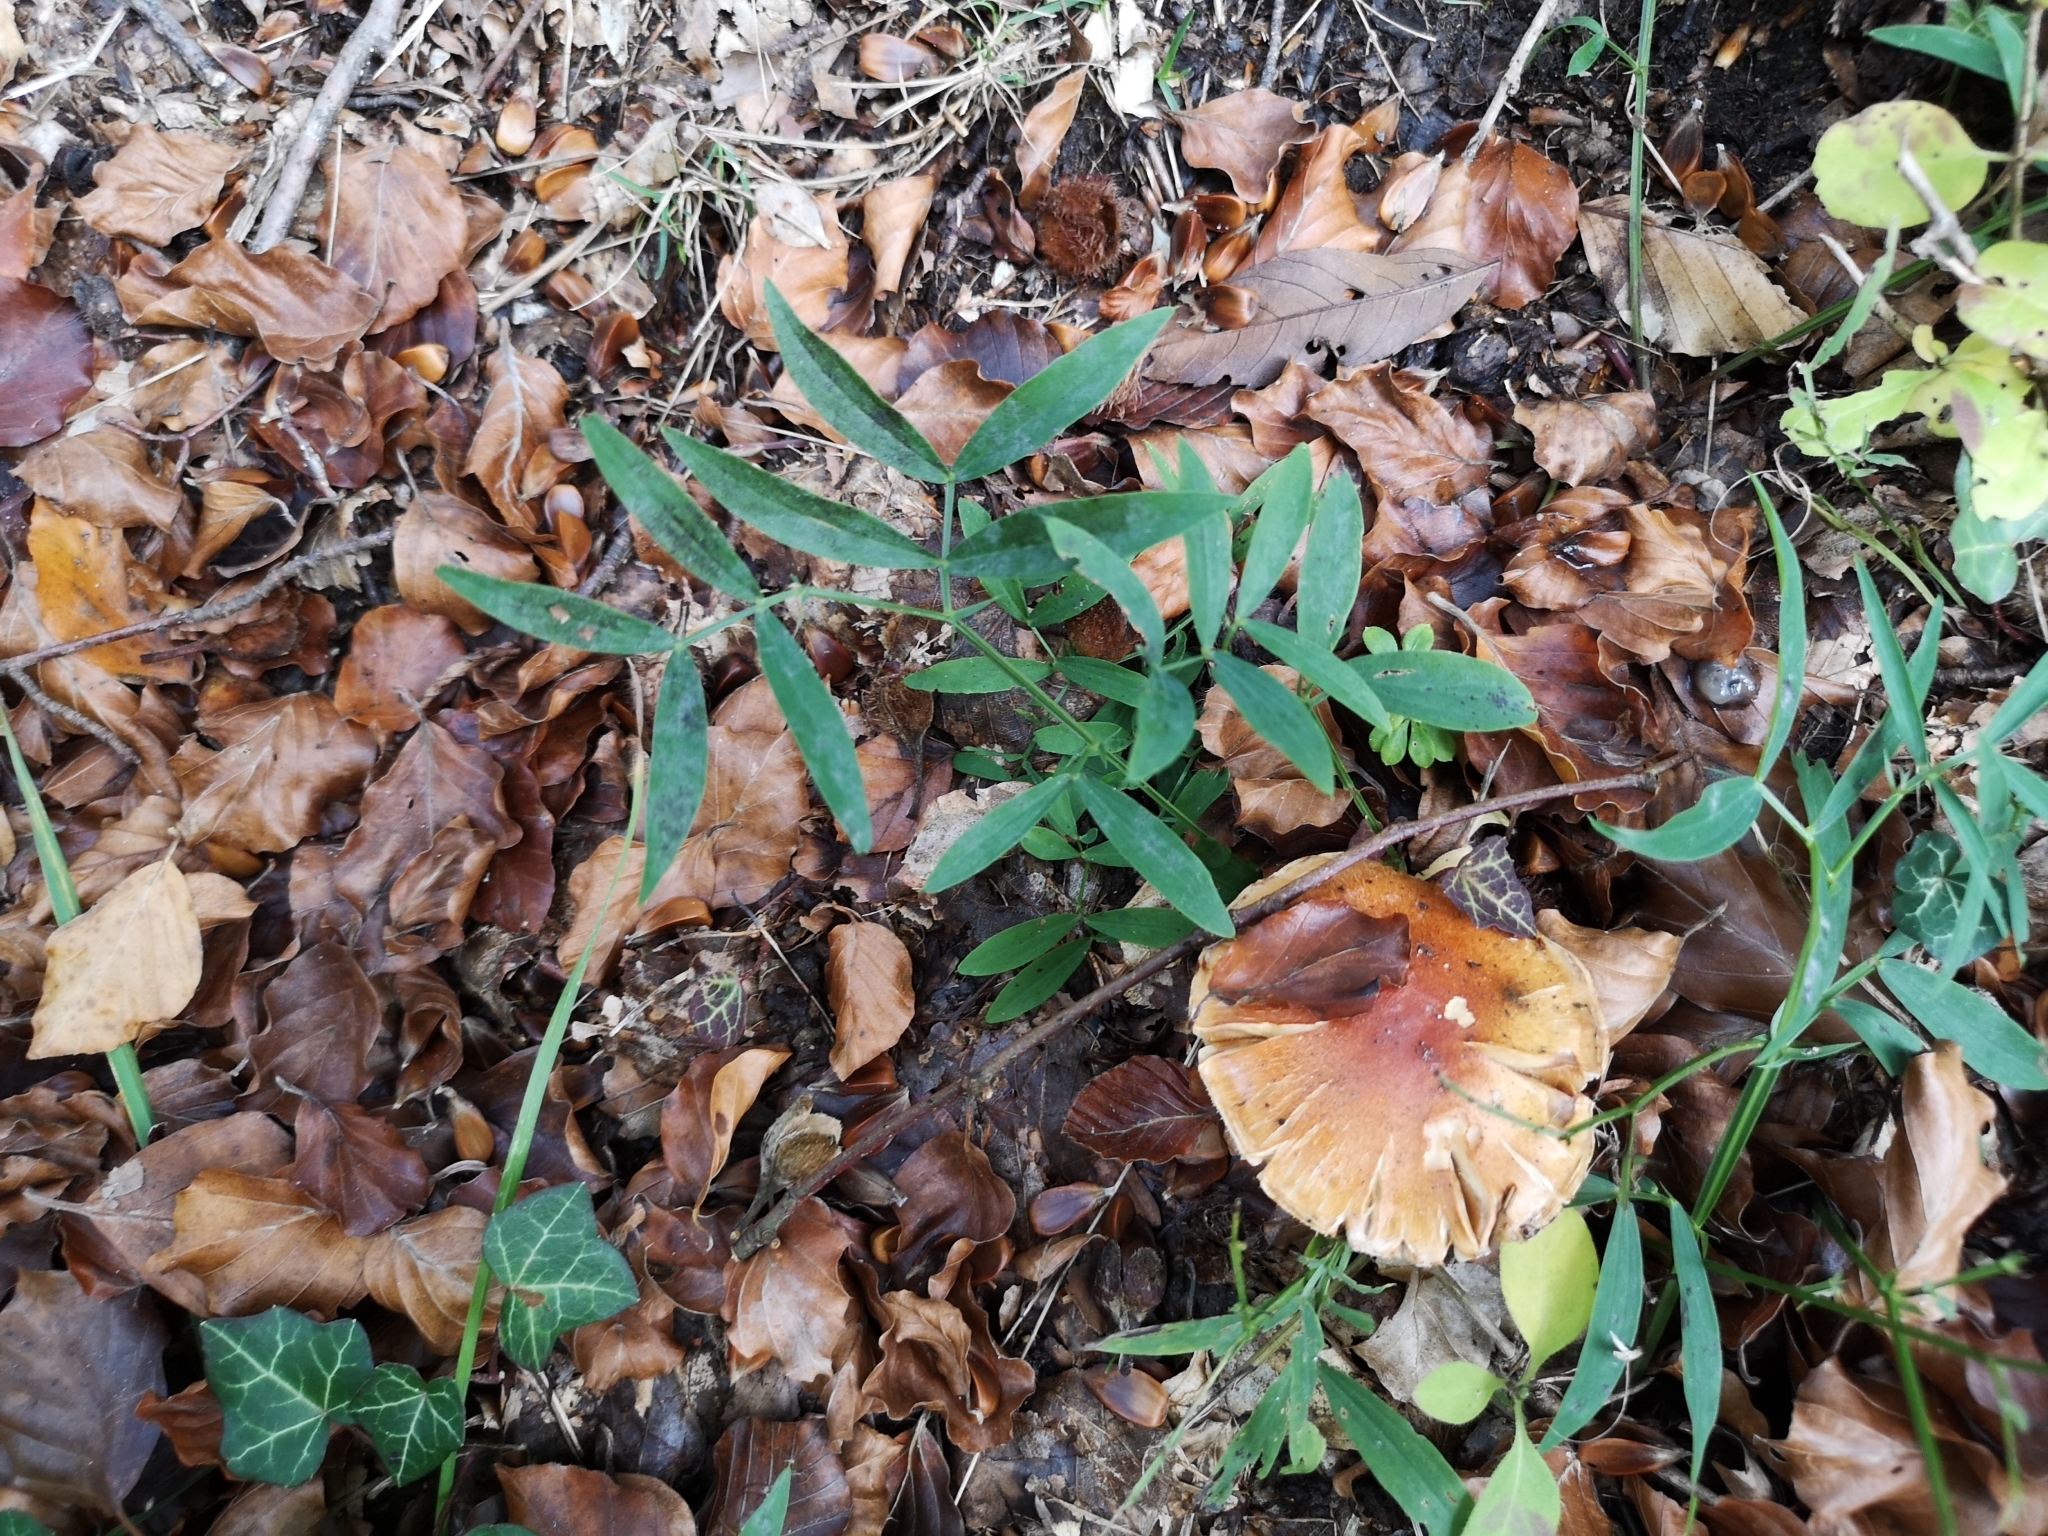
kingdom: Plantae
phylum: Tracheophyta
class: Magnoliopsida
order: Fabales
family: Fabaceae
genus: Lathyrus
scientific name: Lathyrus linifolius
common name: Bitter-vetch
